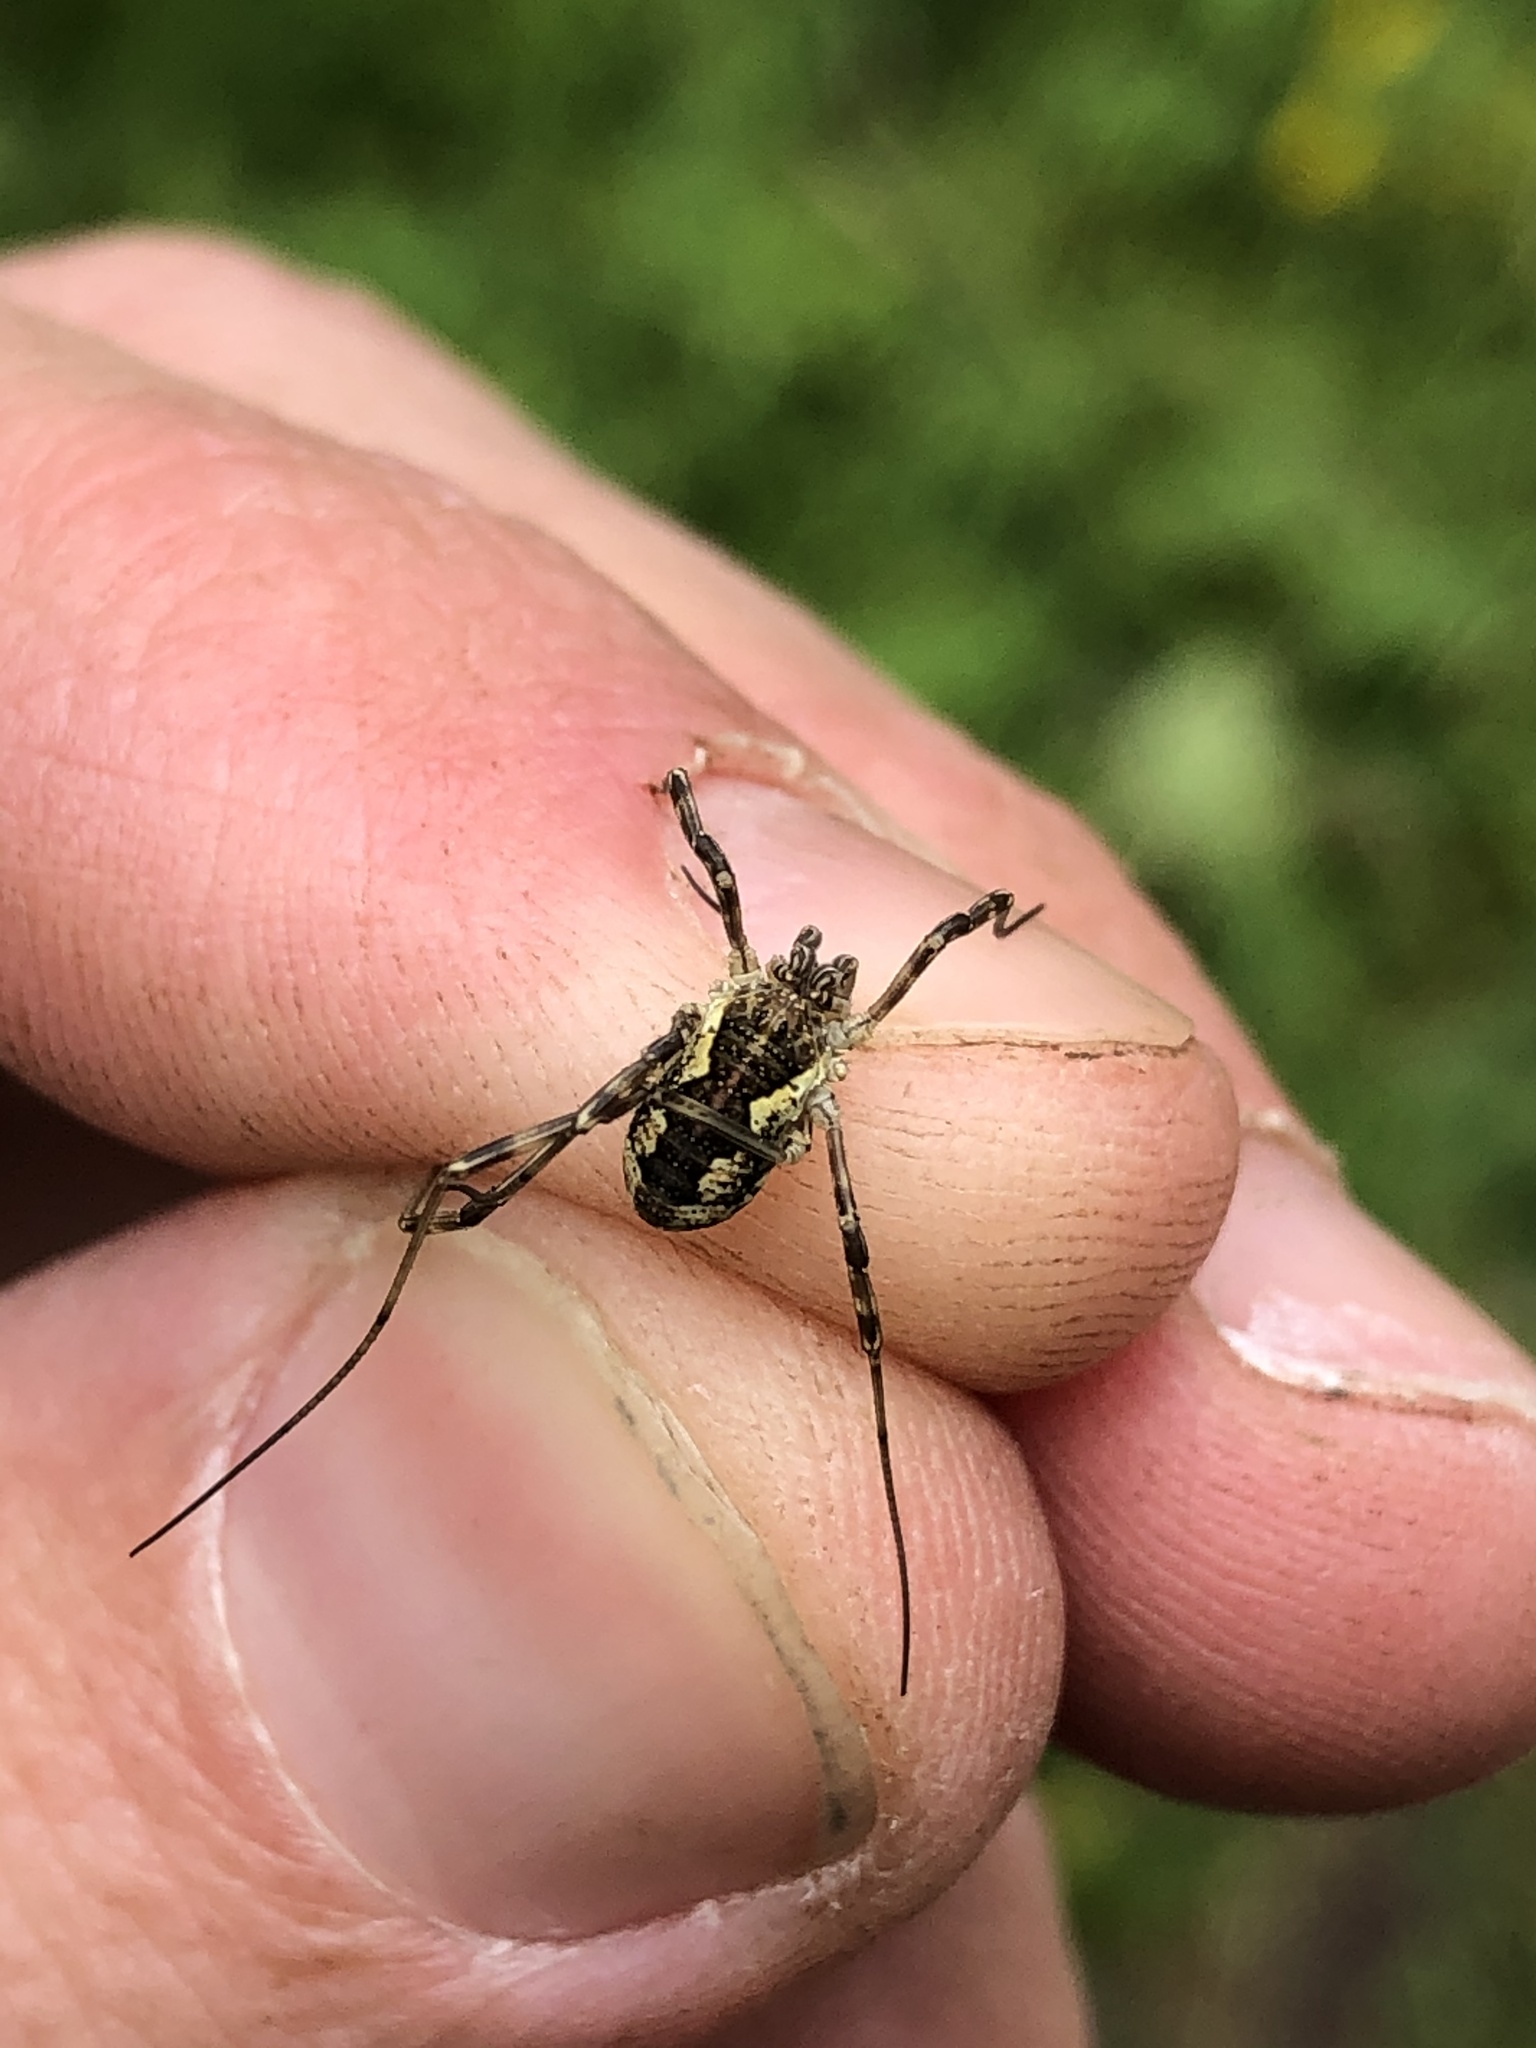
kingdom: Animalia
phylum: Arthropoda
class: Arachnida
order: Opiliones
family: Phalangiidae
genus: Mitopus
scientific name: Mitopus morio
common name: Saddleback harvestman
